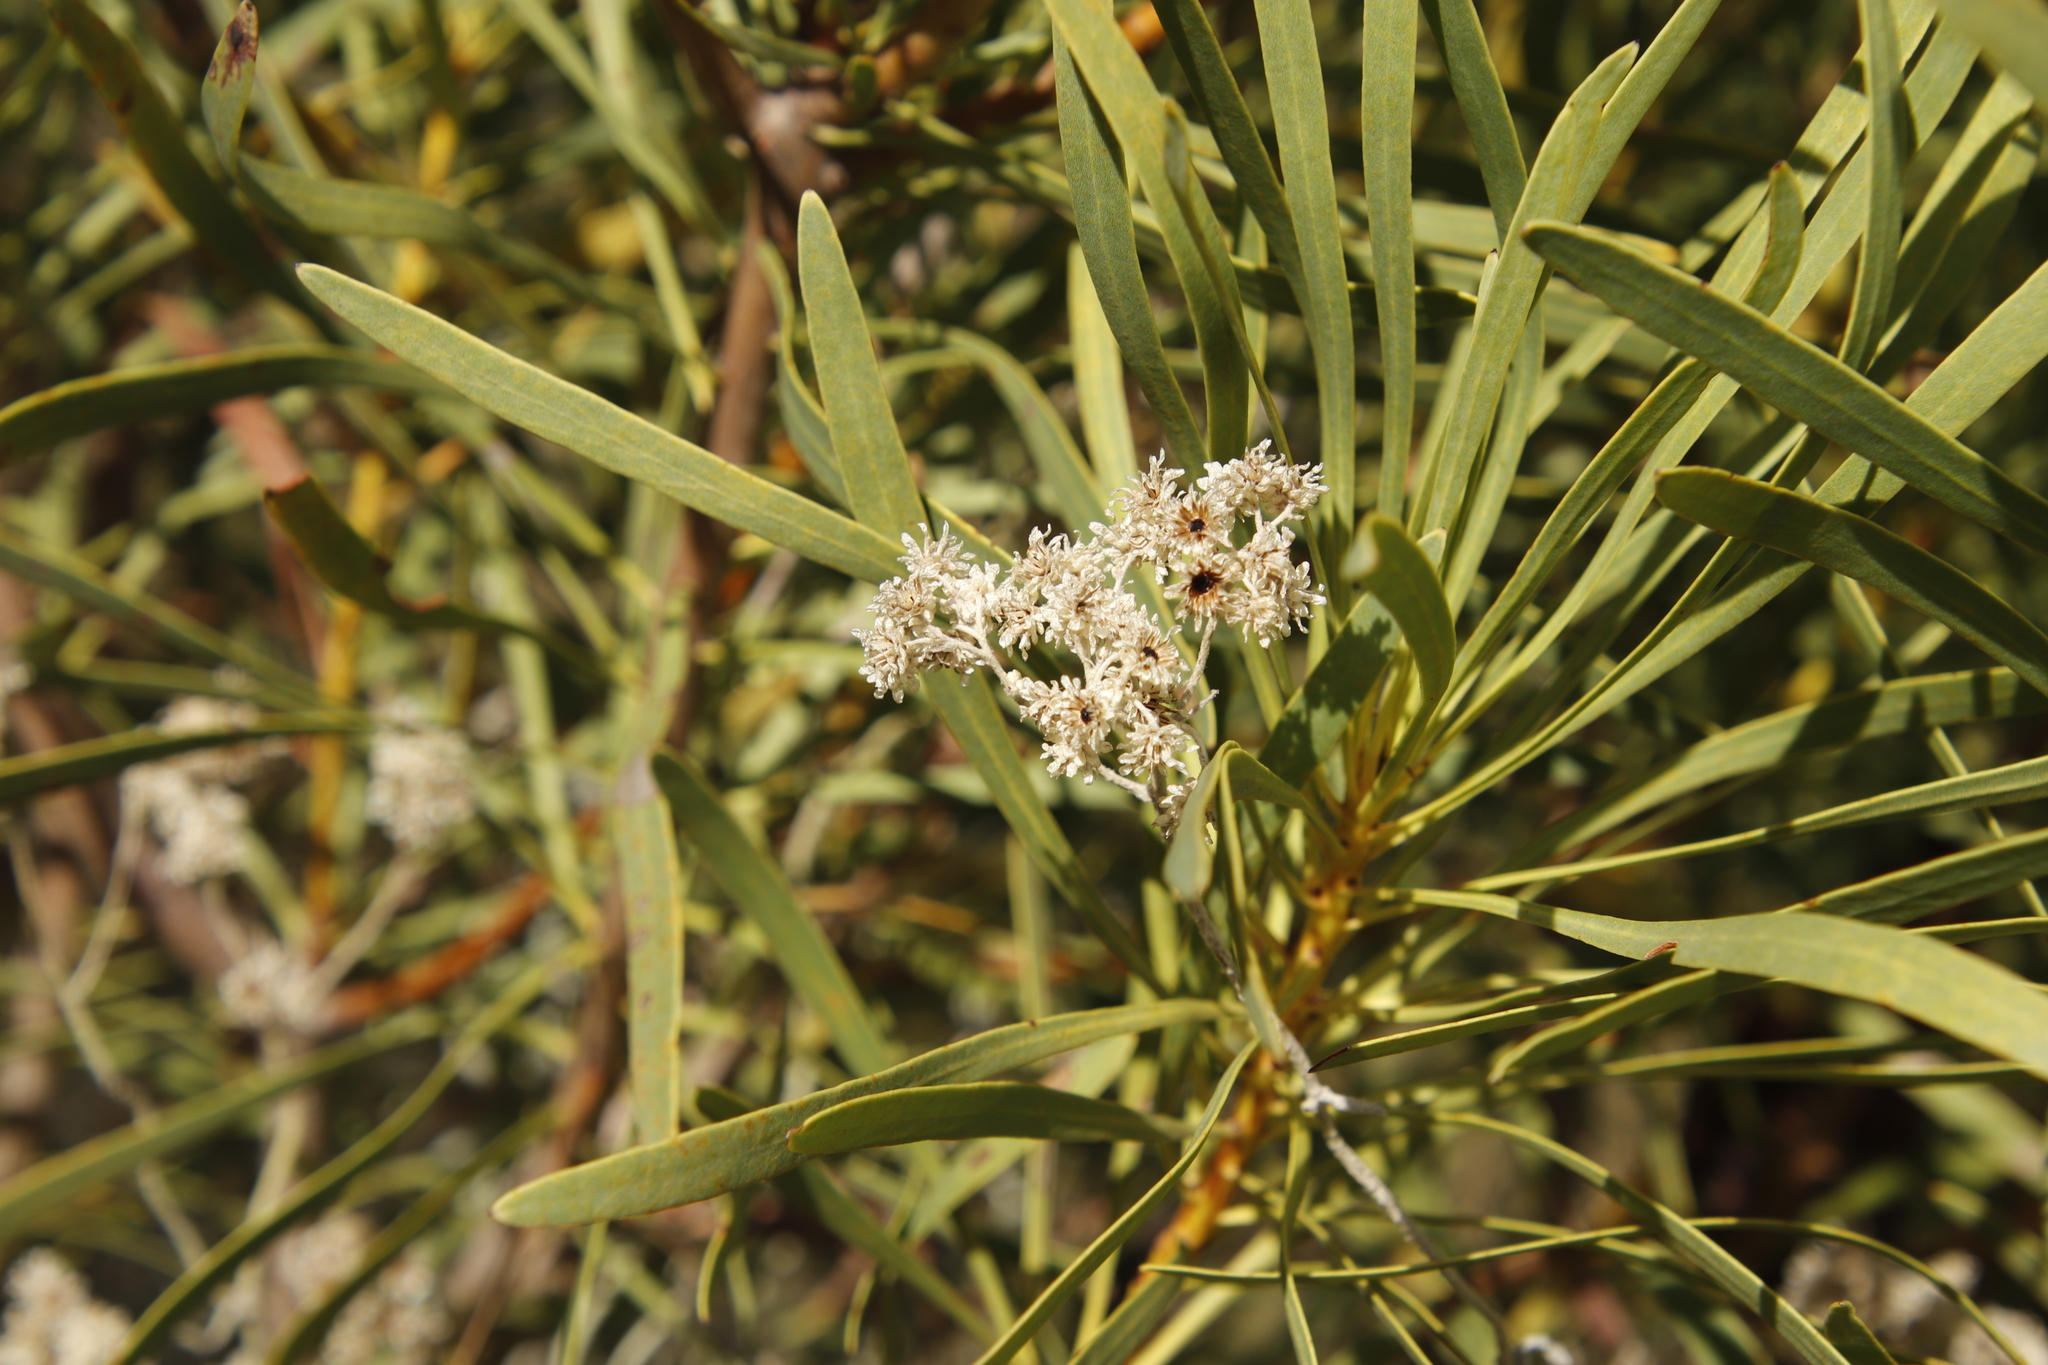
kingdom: Plantae
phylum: Tracheophyta
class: Magnoliopsida
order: Proteales
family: Proteaceae
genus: Protea
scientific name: Protea repens
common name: Sugarbush
